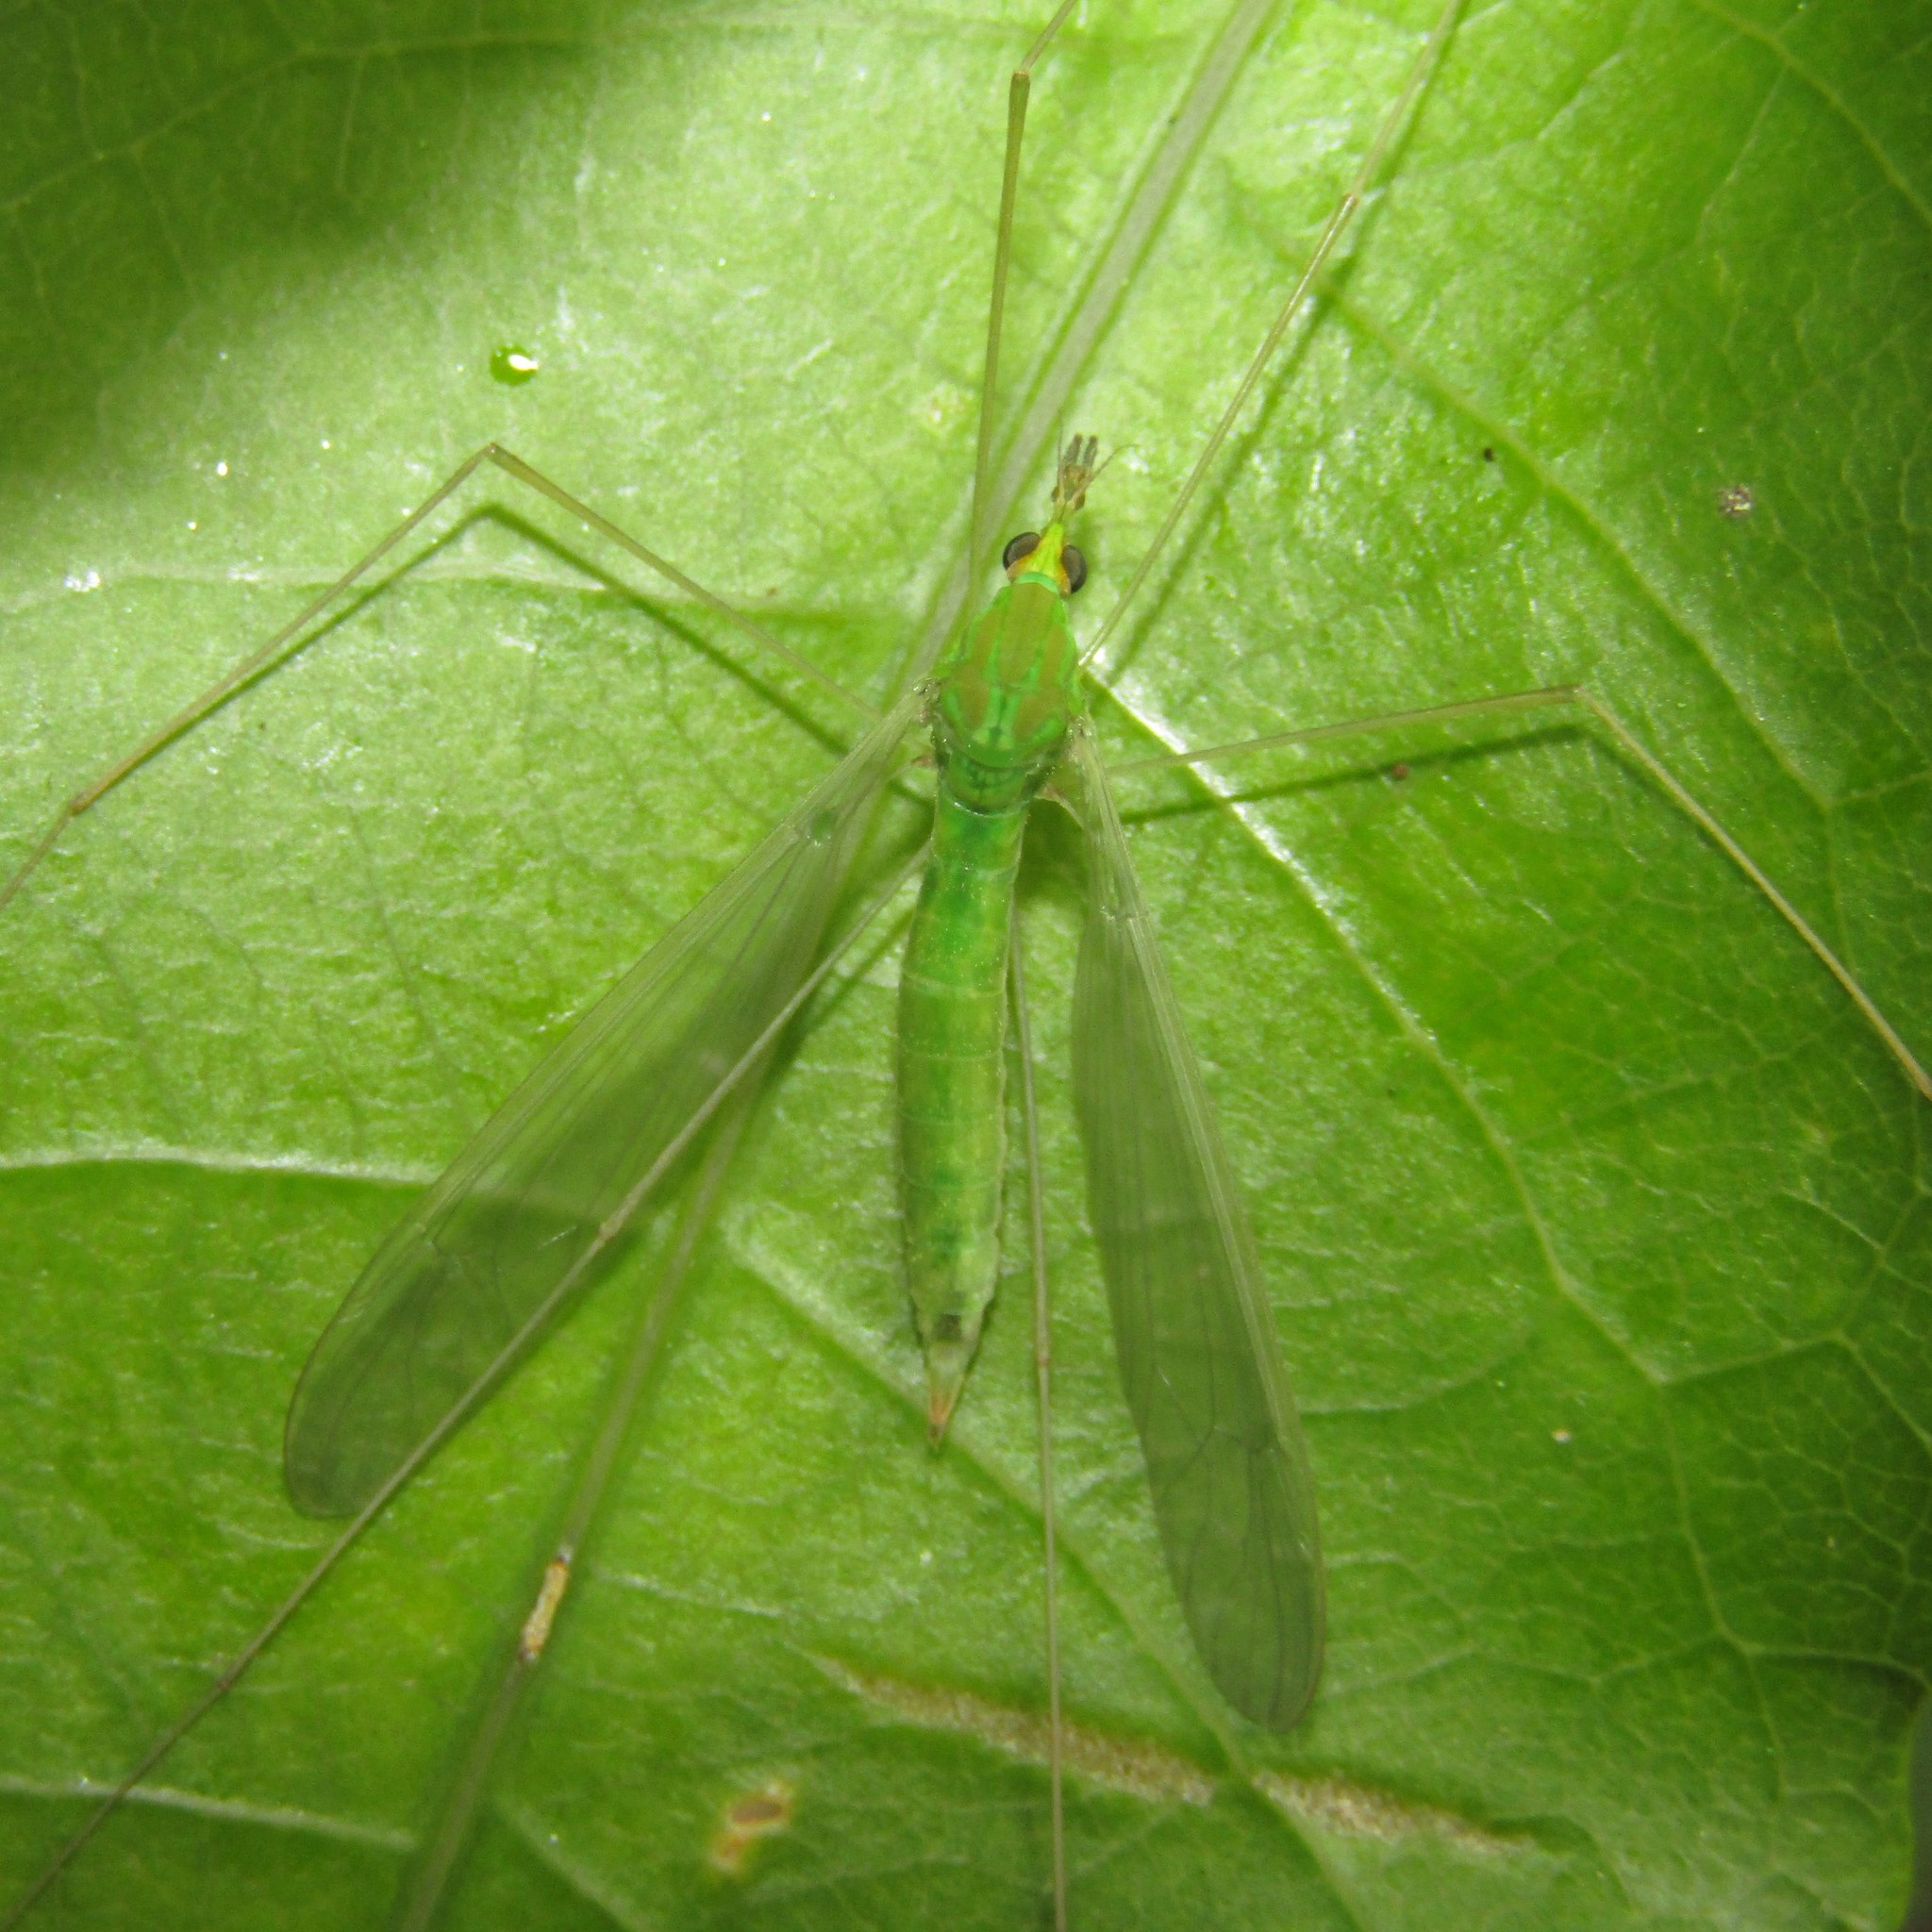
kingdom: Animalia
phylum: Arthropoda
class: Insecta
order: Diptera
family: Tipulidae
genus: Leptotarsus
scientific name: Leptotarsus virescens
